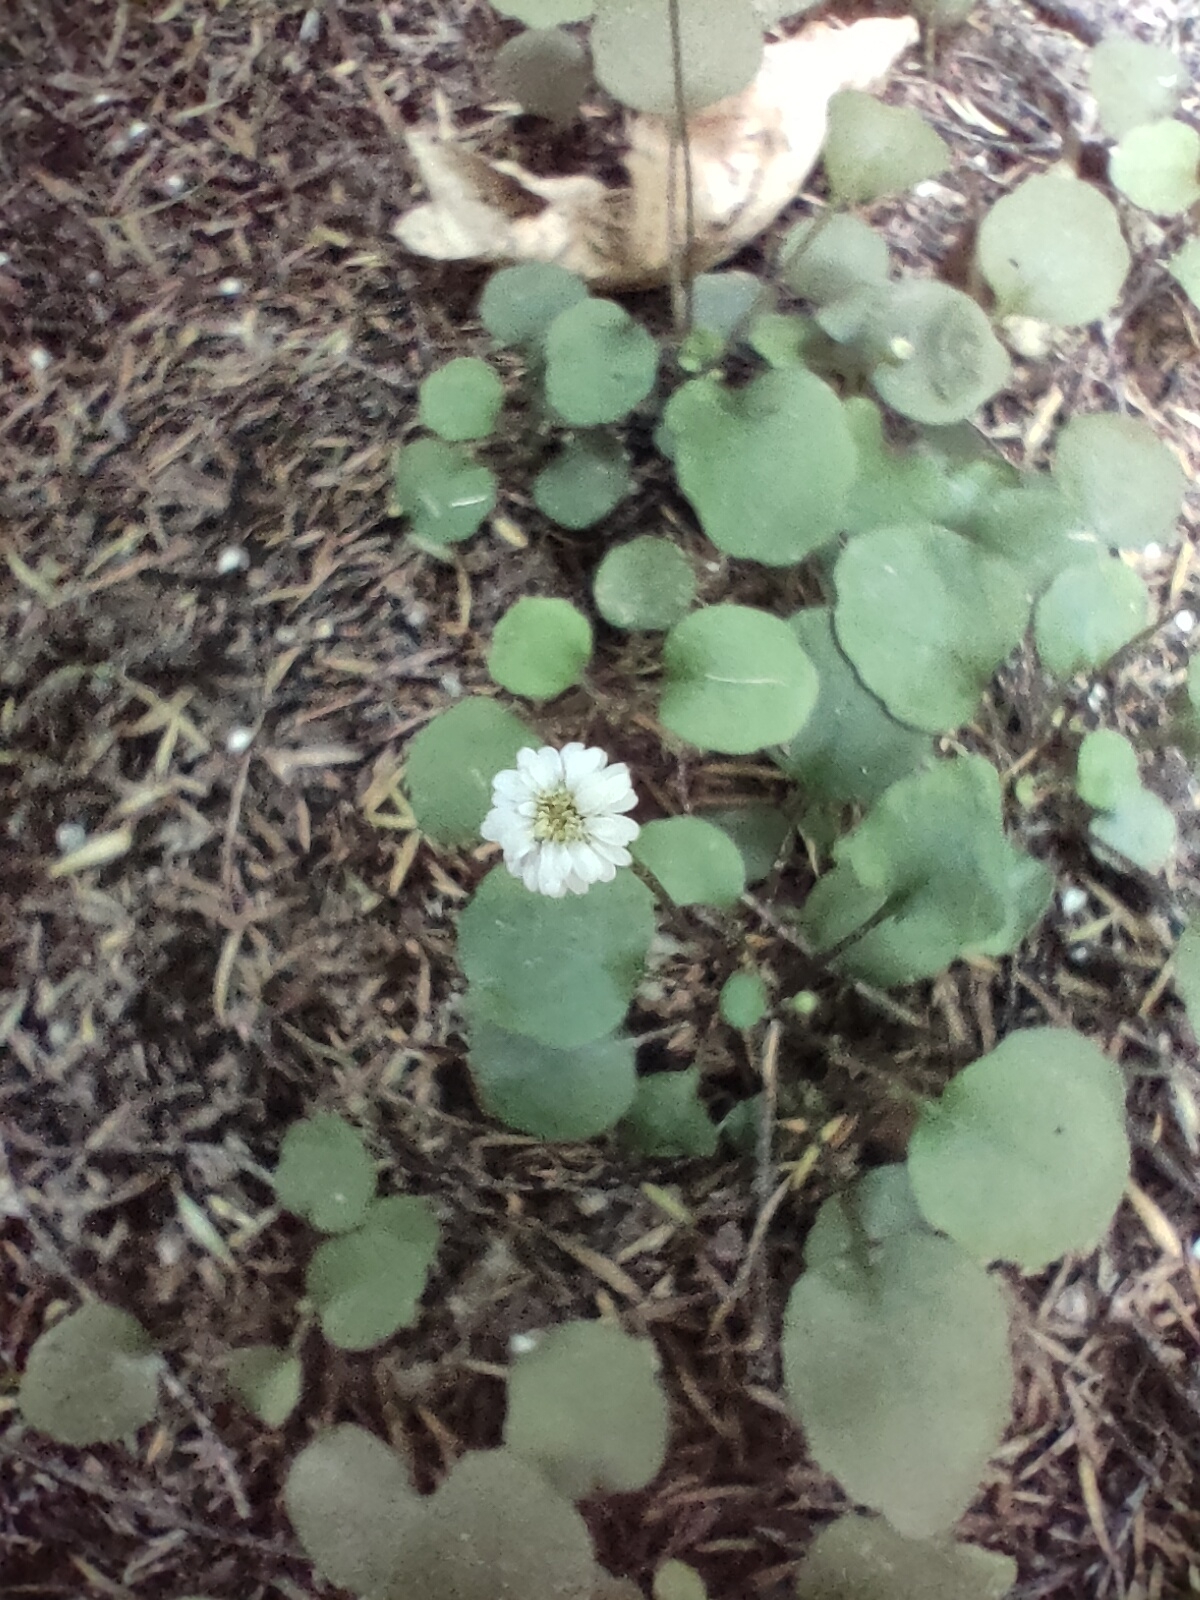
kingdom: Plantae
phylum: Tracheophyta
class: Magnoliopsida
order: Asterales
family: Asteraceae
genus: Lagenophora
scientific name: Lagenophora strangulata
